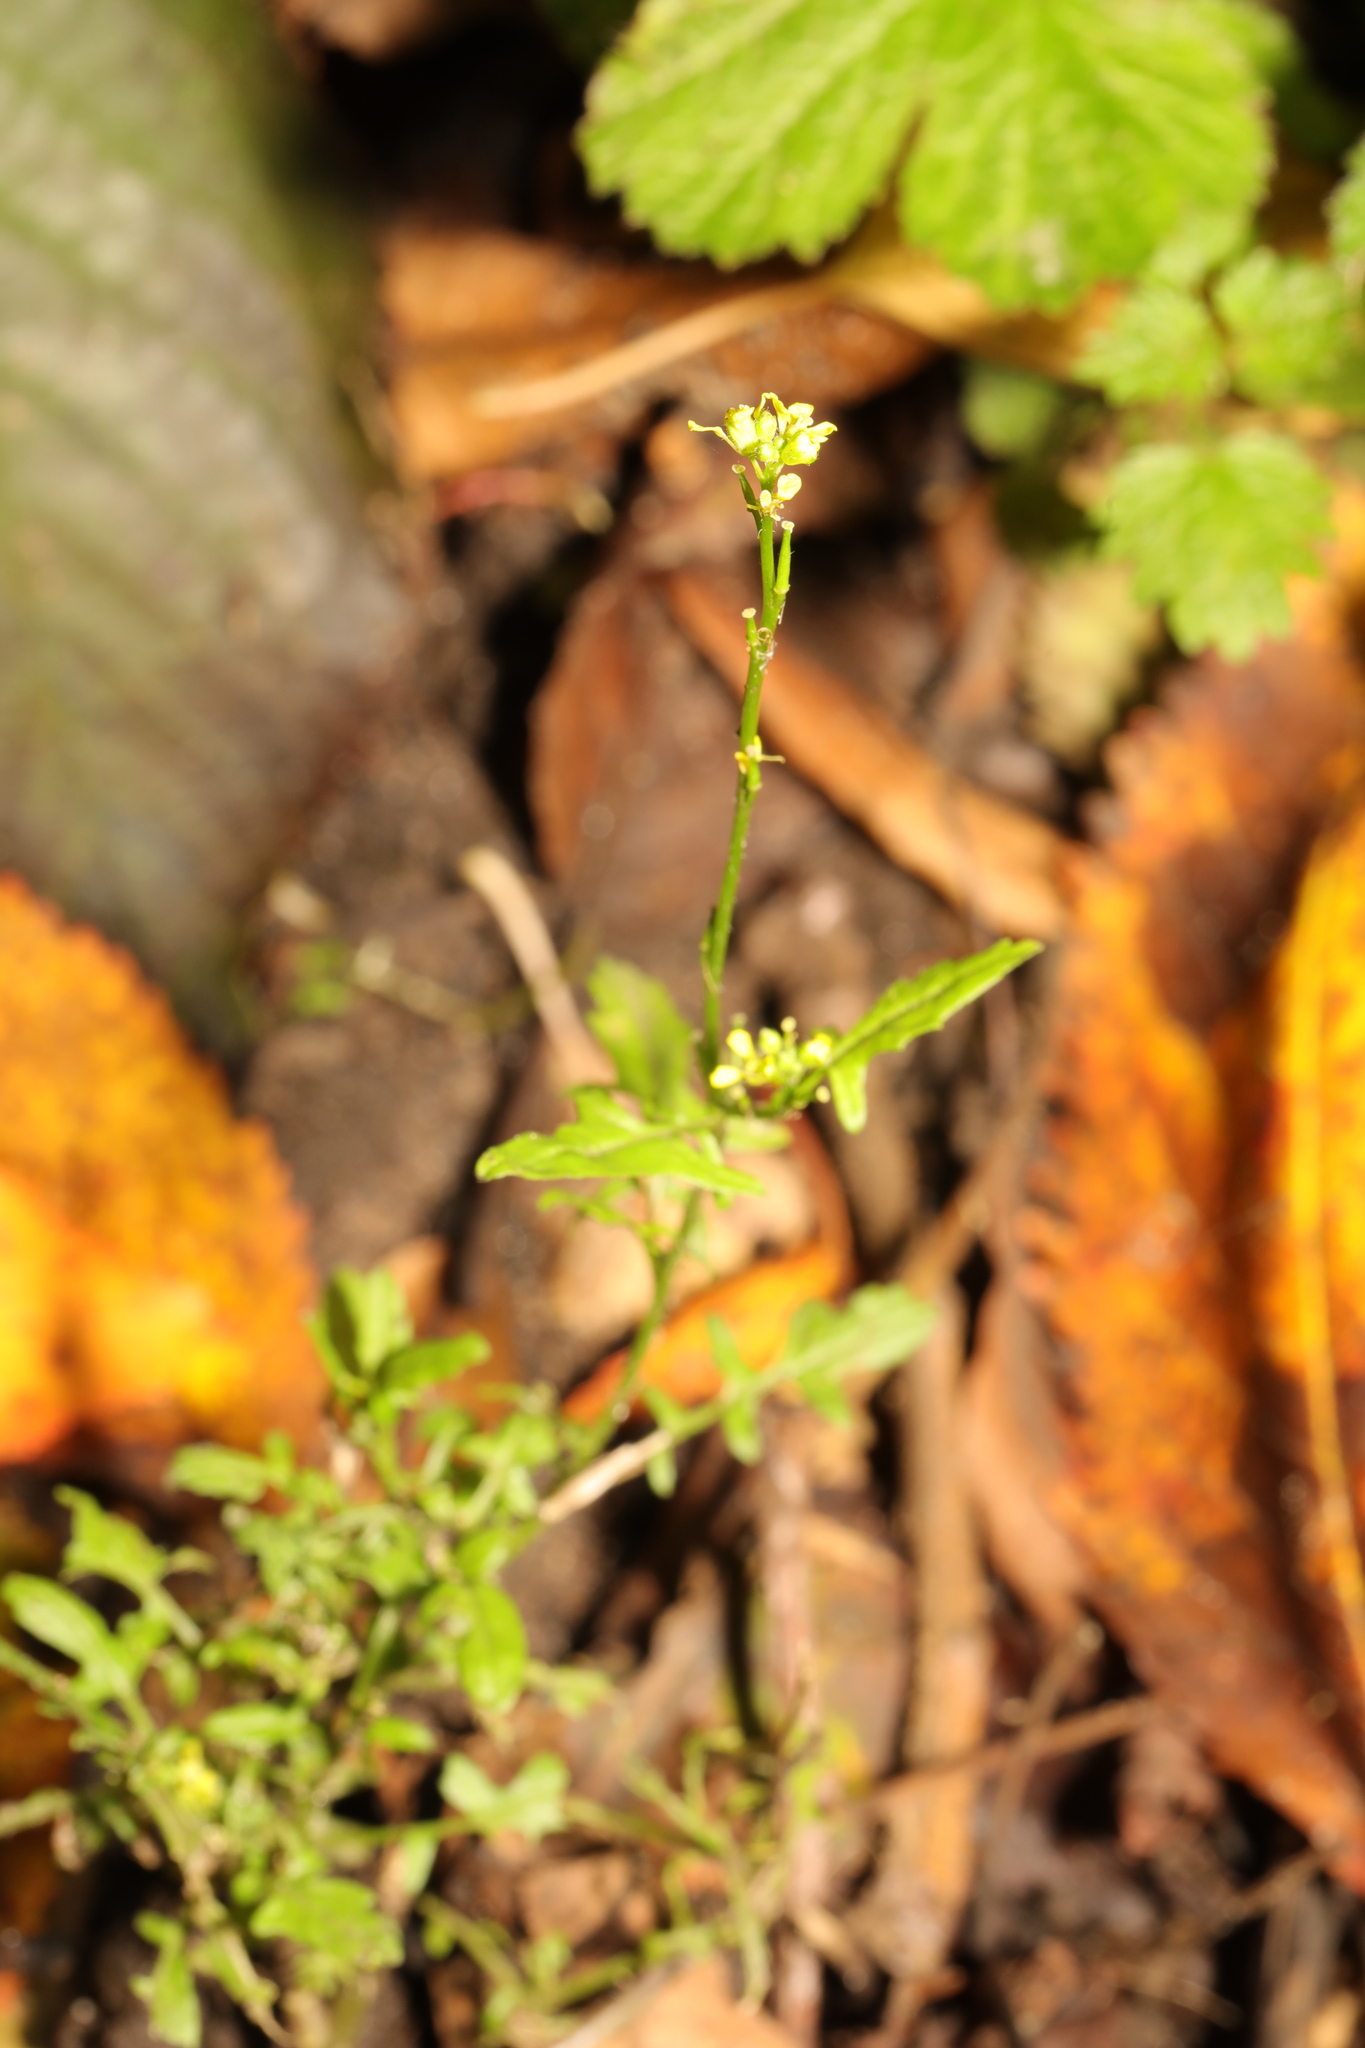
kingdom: Plantae
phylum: Tracheophyta
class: Magnoliopsida
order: Brassicales
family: Brassicaceae
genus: Sisymbrium
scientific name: Sisymbrium officinale
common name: Hedge mustard
